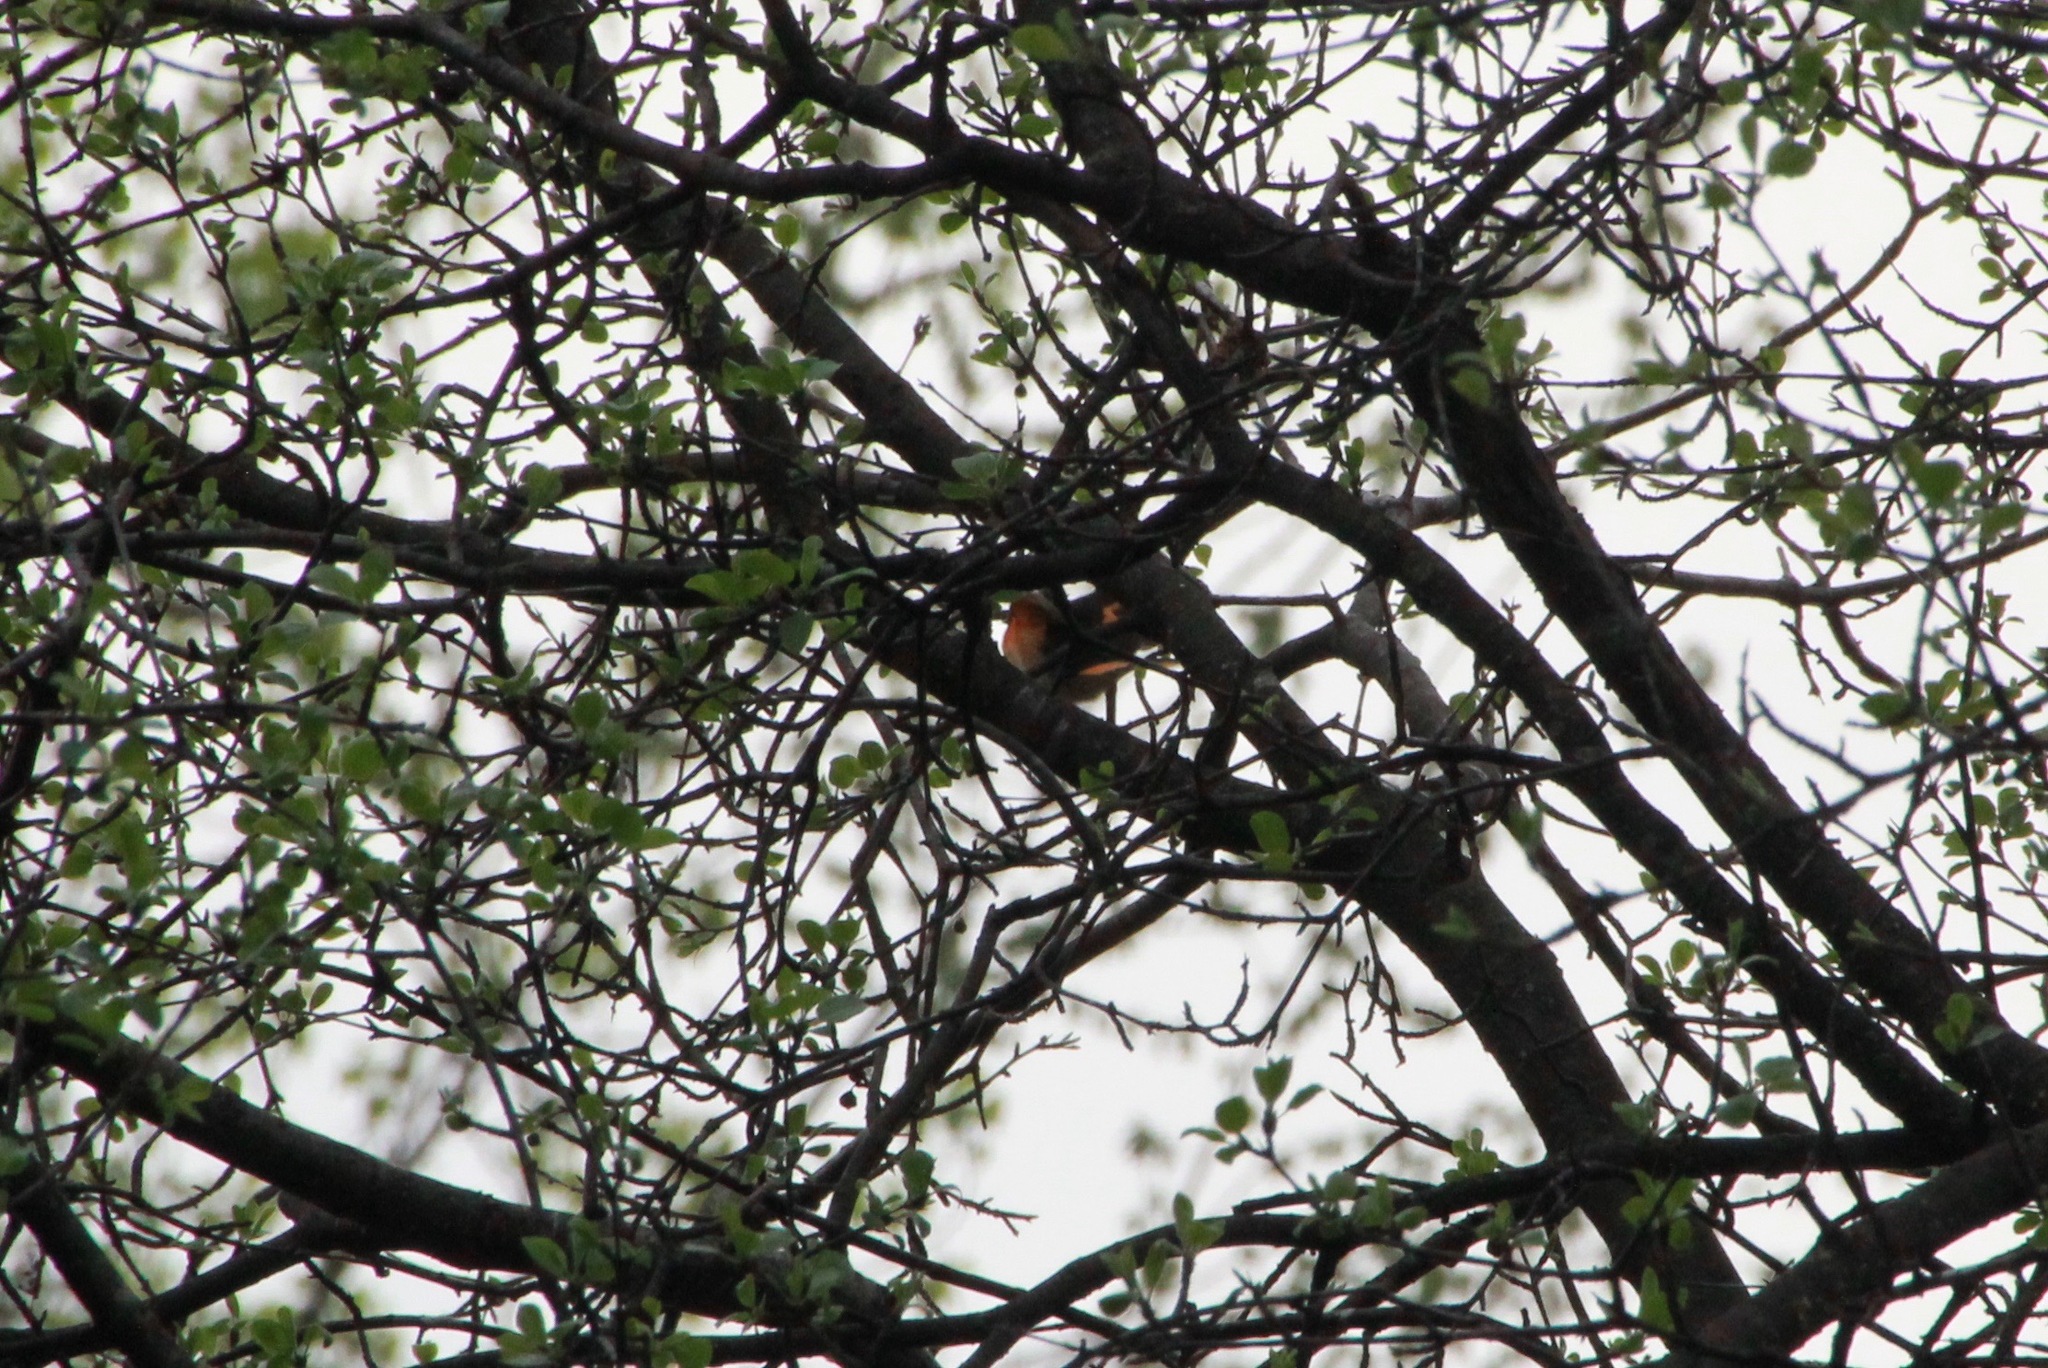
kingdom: Animalia
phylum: Chordata
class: Aves
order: Passeriformes
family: Parulidae
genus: Setophaga
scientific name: Setophaga ruticilla
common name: American redstart
